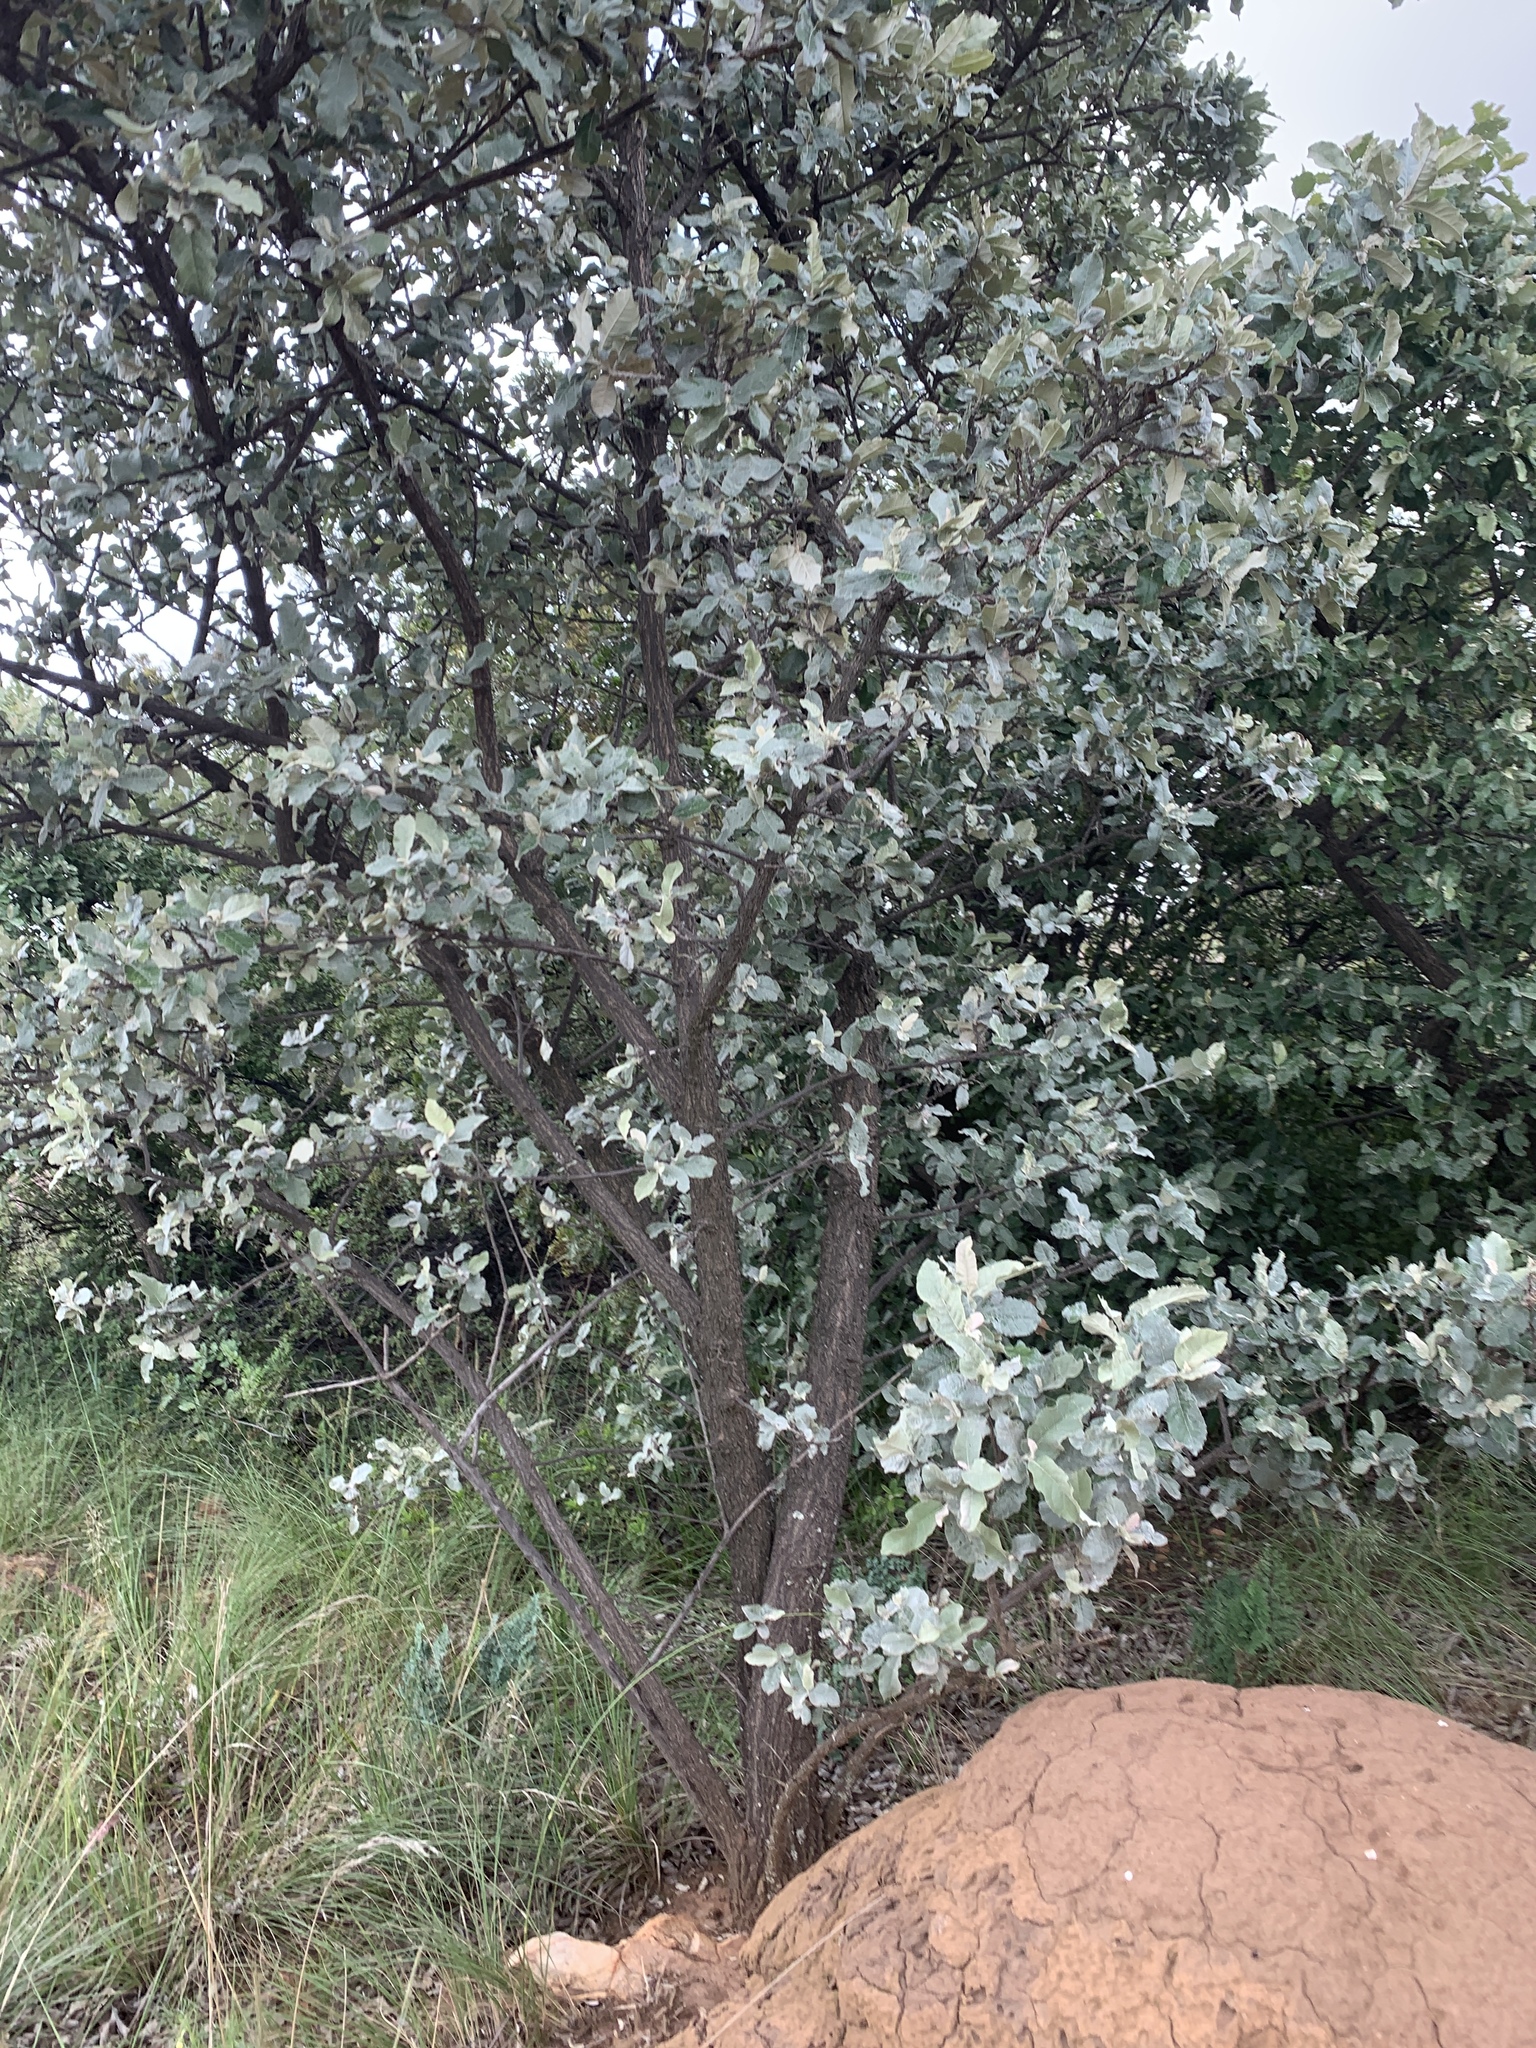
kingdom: Plantae
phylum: Tracheophyta
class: Magnoliopsida
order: Asterales
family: Asteraceae
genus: Brachylaena
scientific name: Brachylaena discolor
